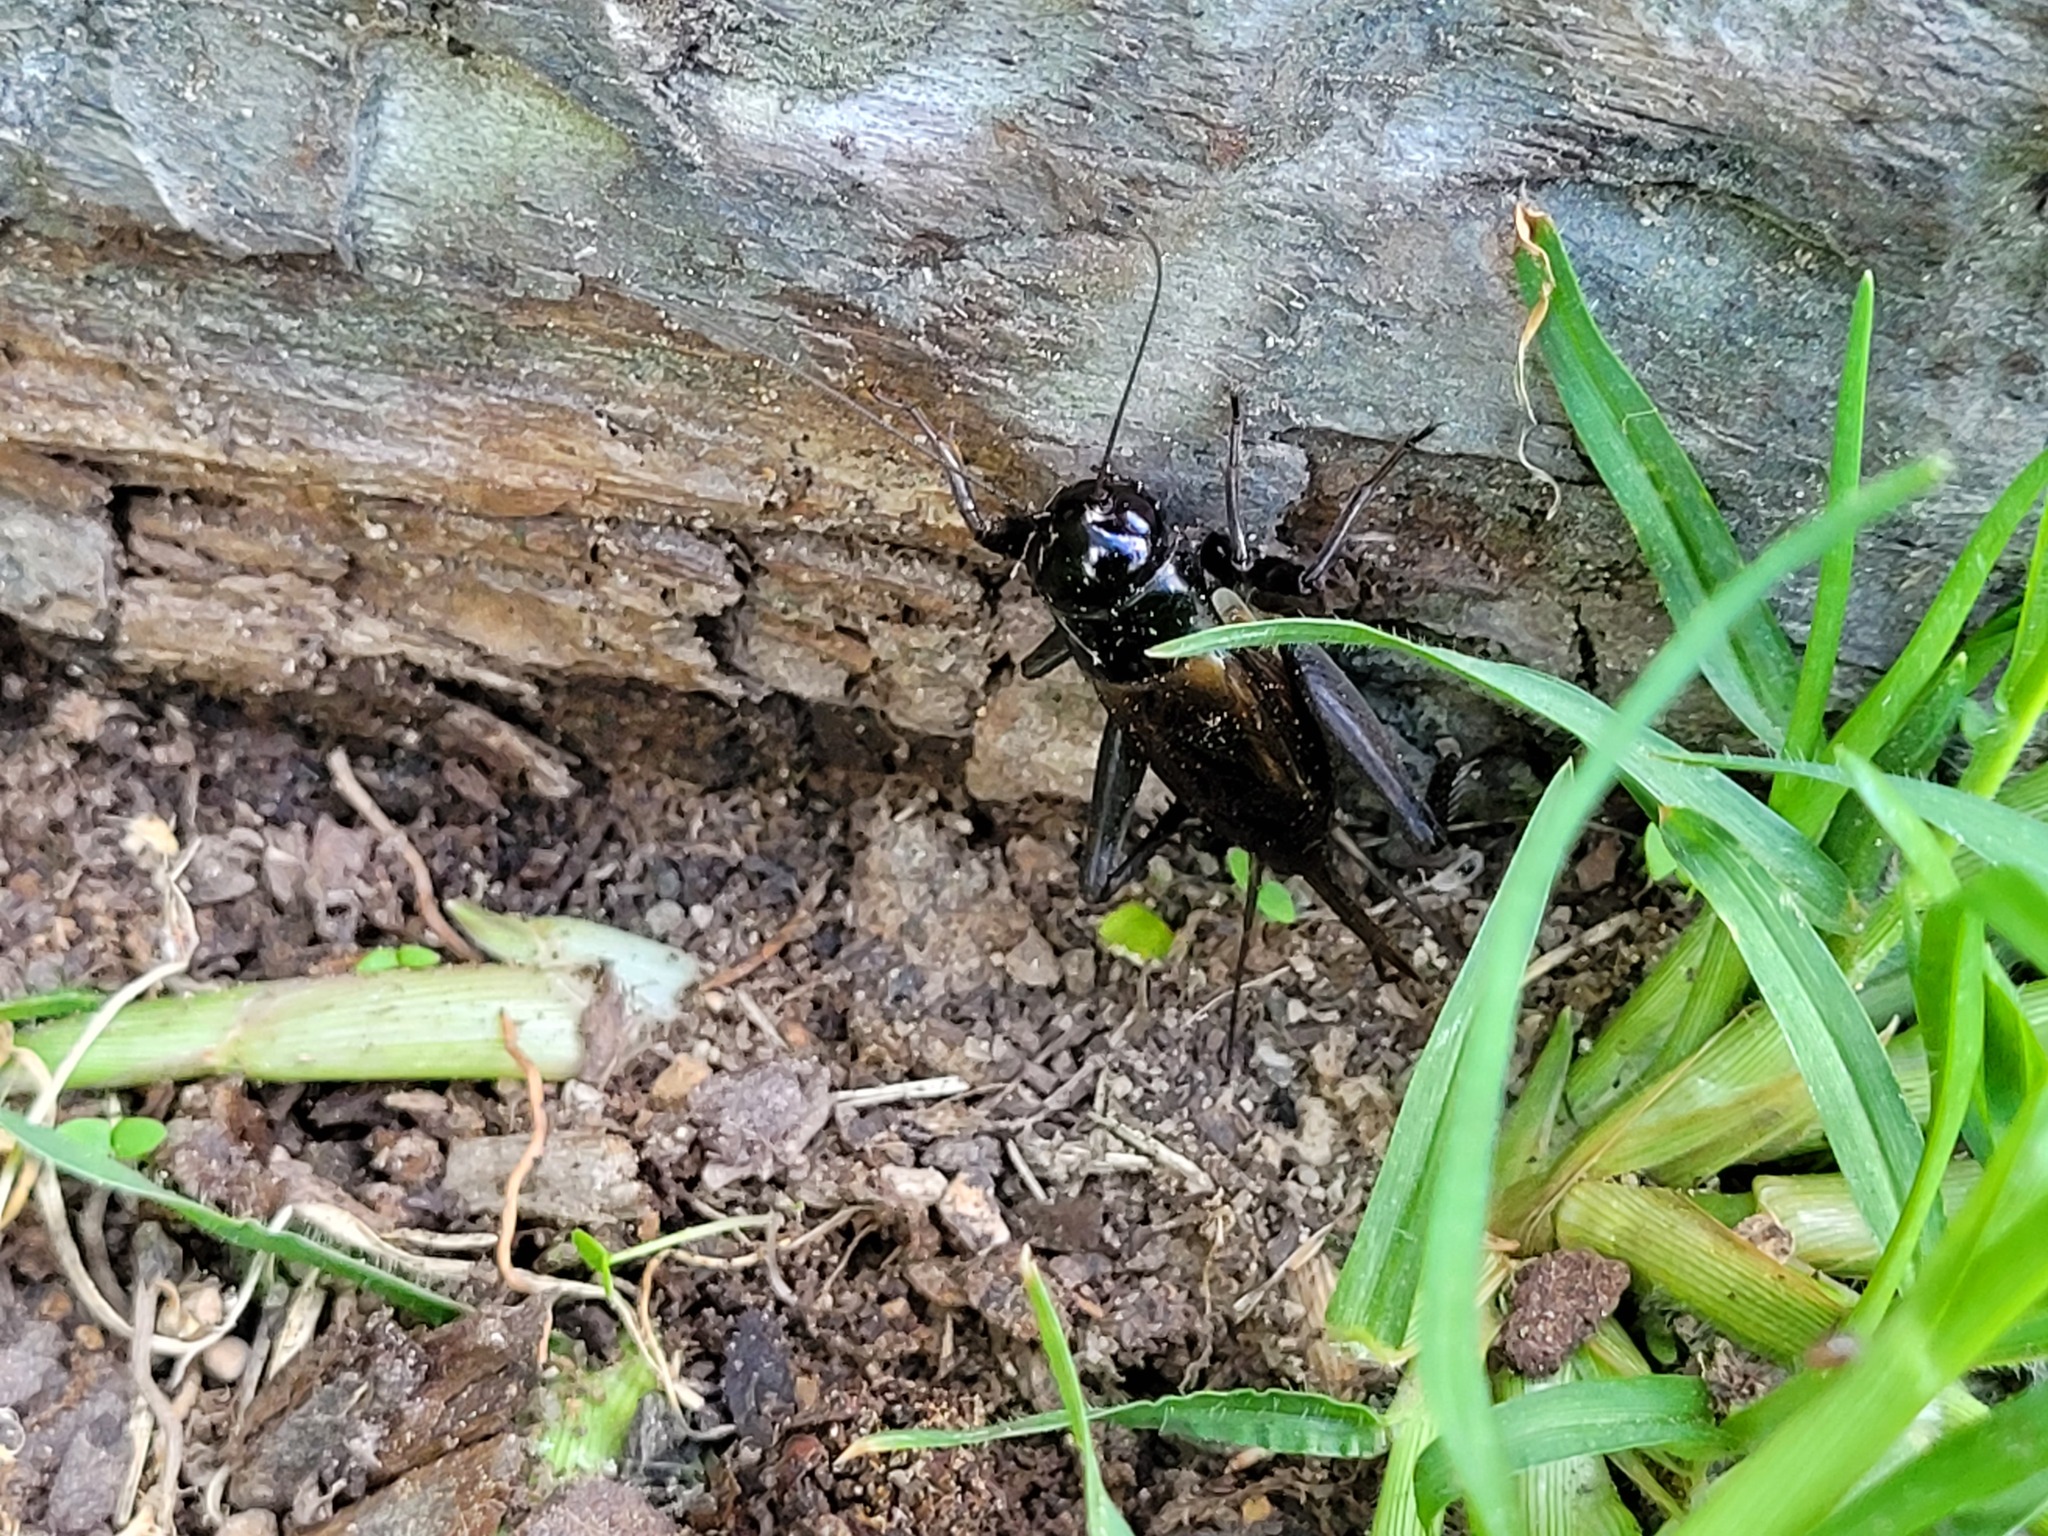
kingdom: Animalia
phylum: Arthropoda
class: Insecta
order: Orthoptera
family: Gryllidae
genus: Teleogryllus
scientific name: Teleogryllus commodus
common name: Black field cricket
